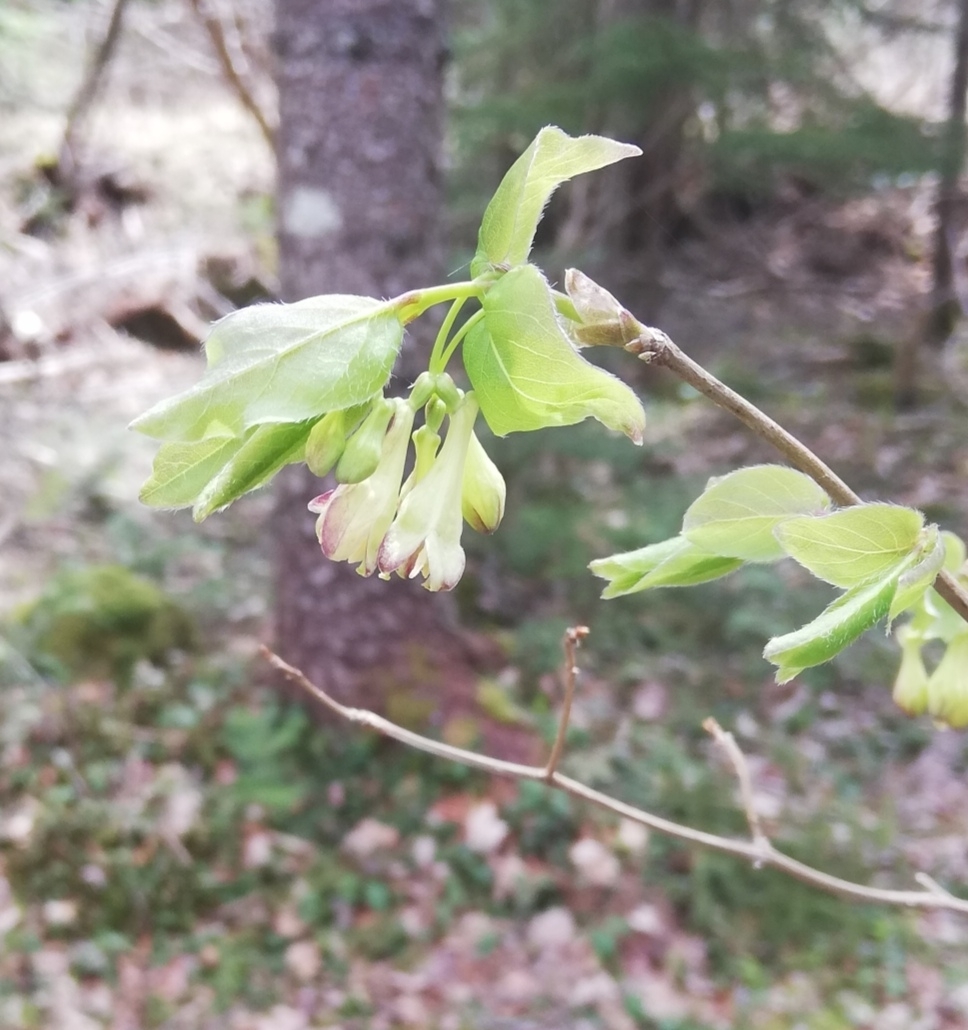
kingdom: Plantae
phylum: Tracheophyta
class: Magnoliopsida
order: Dipsacales
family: Caprifoliaceae
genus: Lonicera
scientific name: Lonicera canadensis
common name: American fly-honeysuckle
